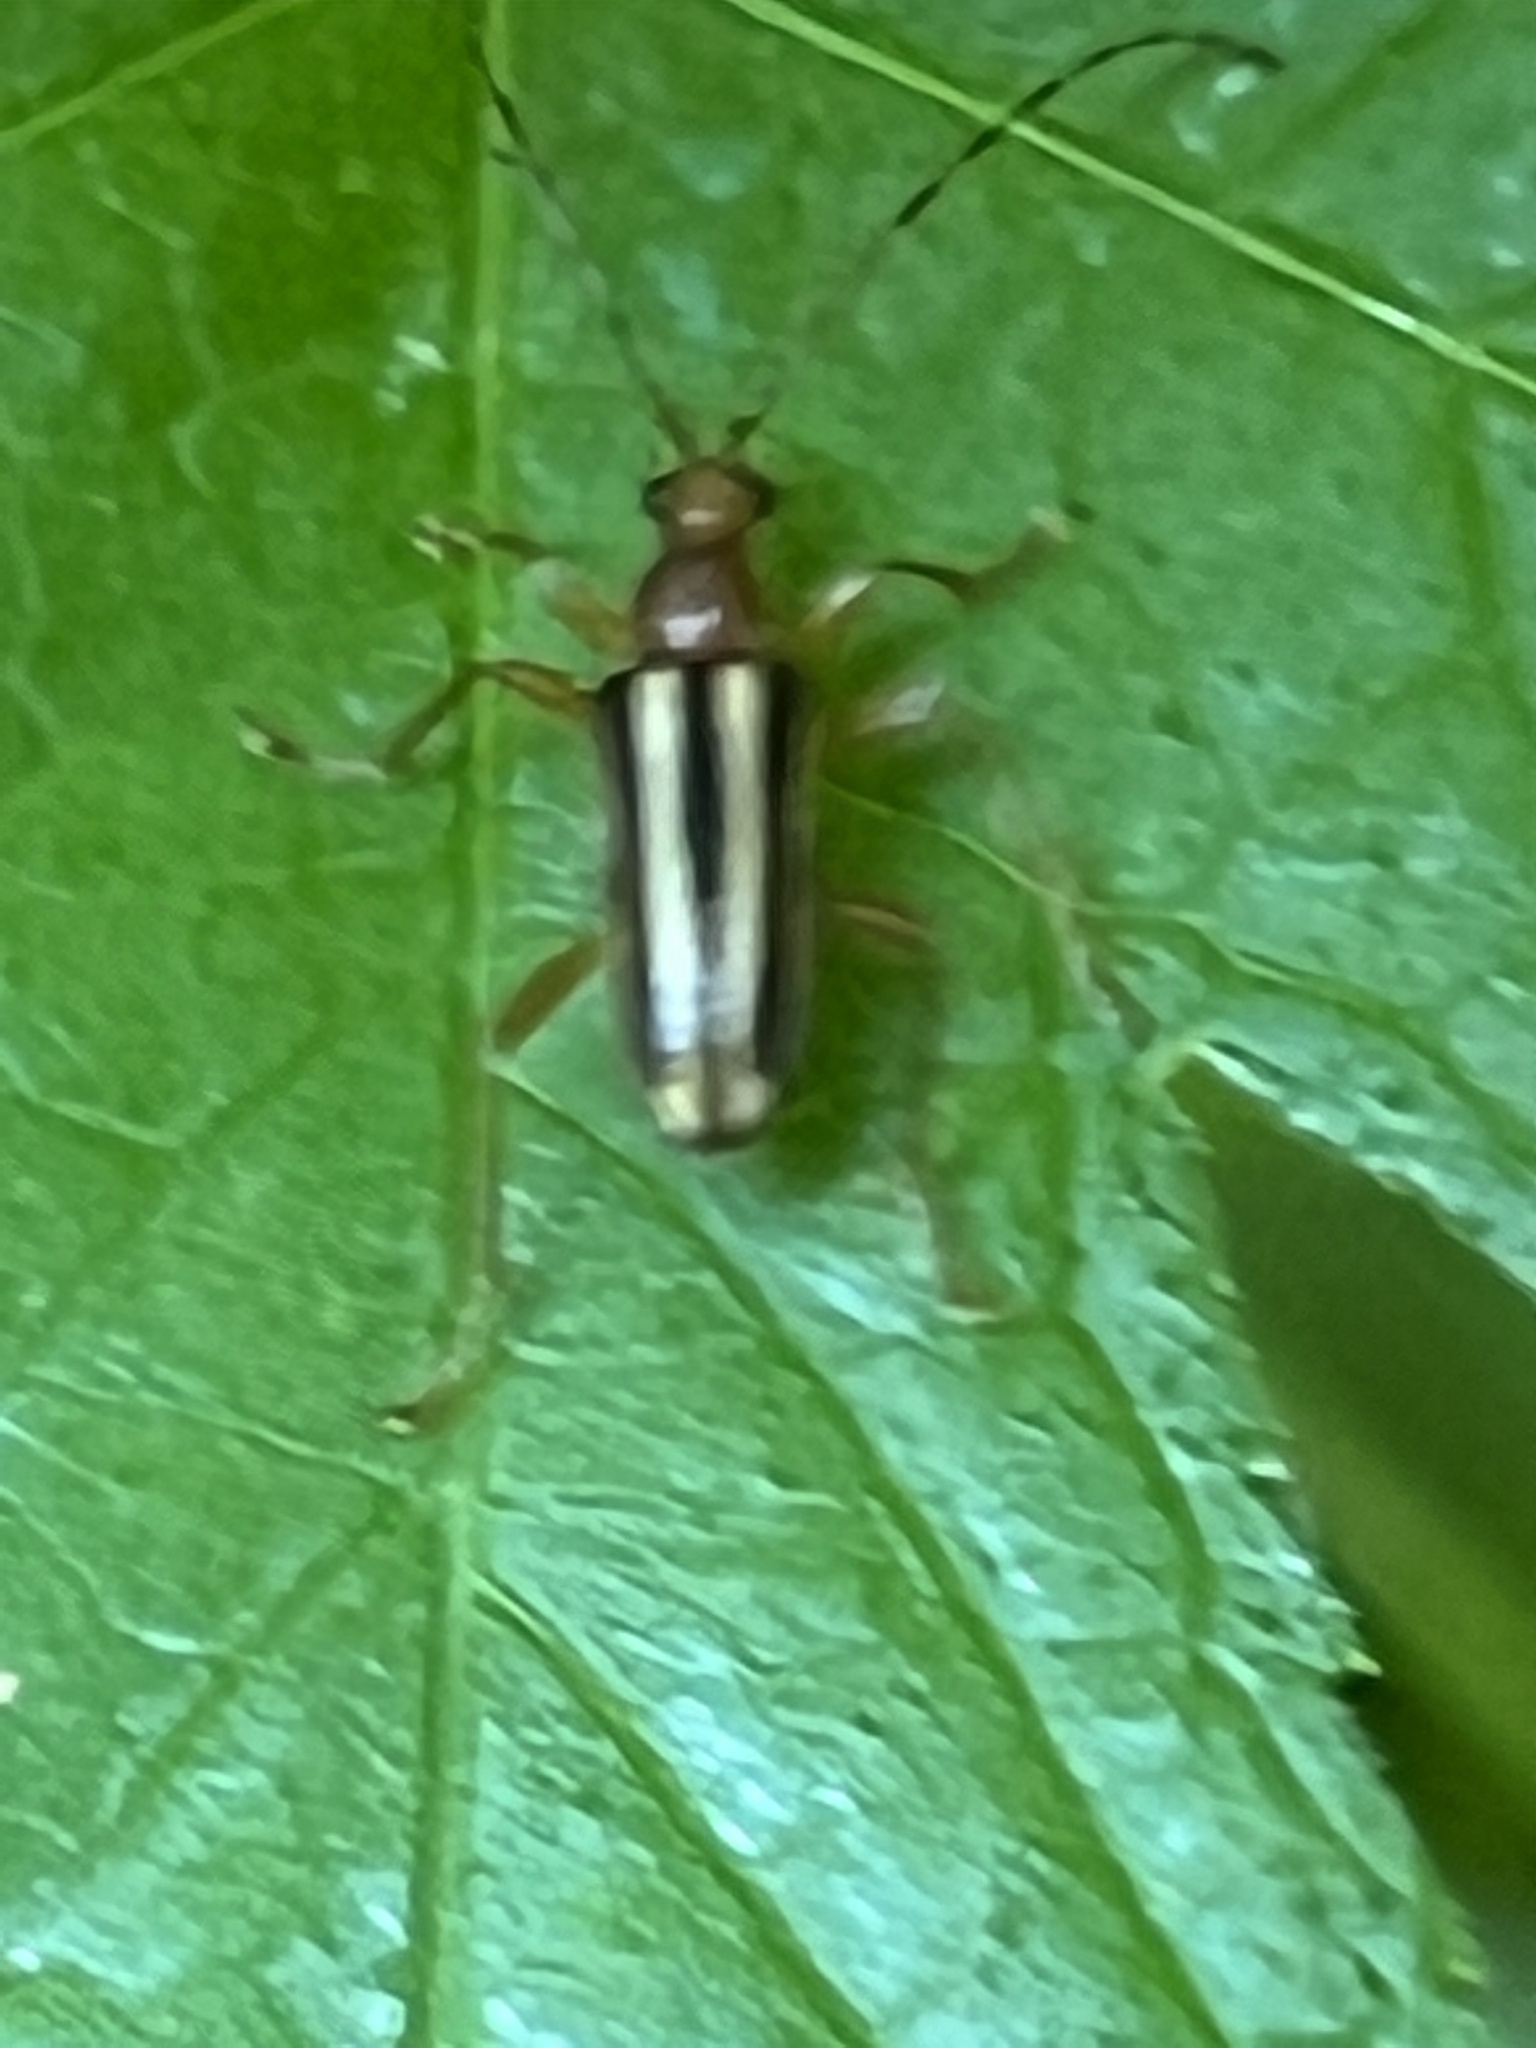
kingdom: Animalia
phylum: Arthropoda
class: Insecta
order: Coleoptera
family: Cerambycidae
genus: Metacmaeops
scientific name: Metacmaeops vittata
